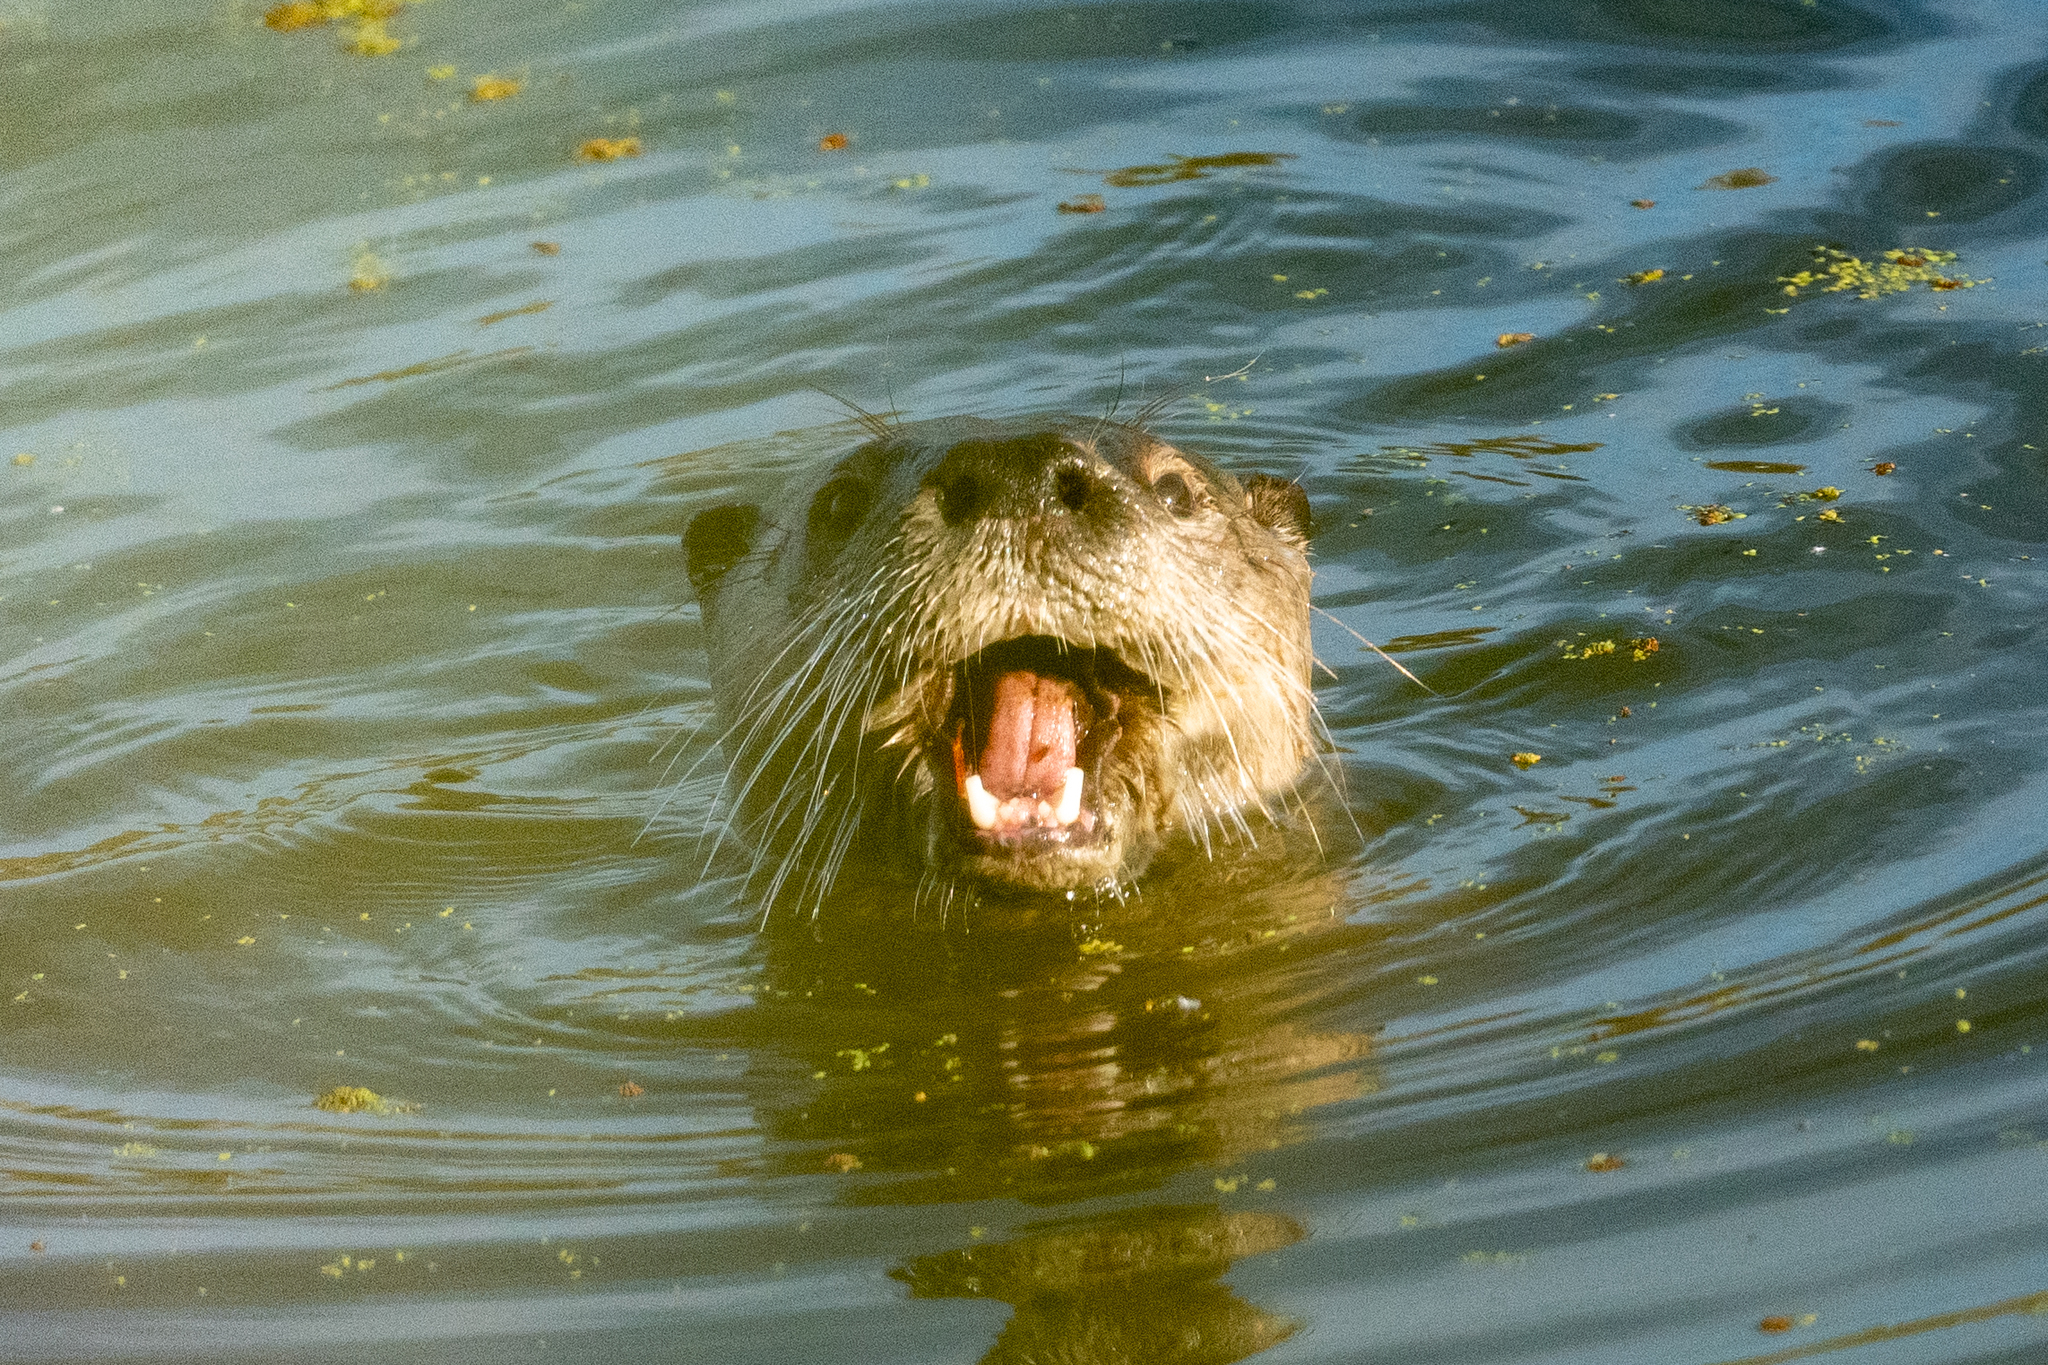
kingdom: Animalia
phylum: Chordata
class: Mammalia
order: Carnivora
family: Mustelidae
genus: Lontra
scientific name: Lontra canadensis
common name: North american river otter
